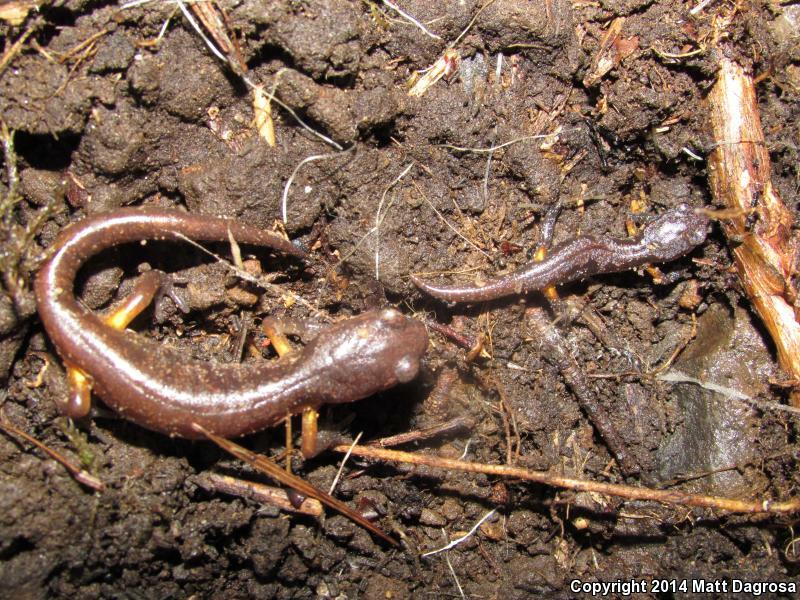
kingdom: Animalia
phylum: Chordata
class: Amphibia
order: Caudata
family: Plethodontidae
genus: Ensatina
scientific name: Ensatina eschscholtzii
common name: Ensatina
